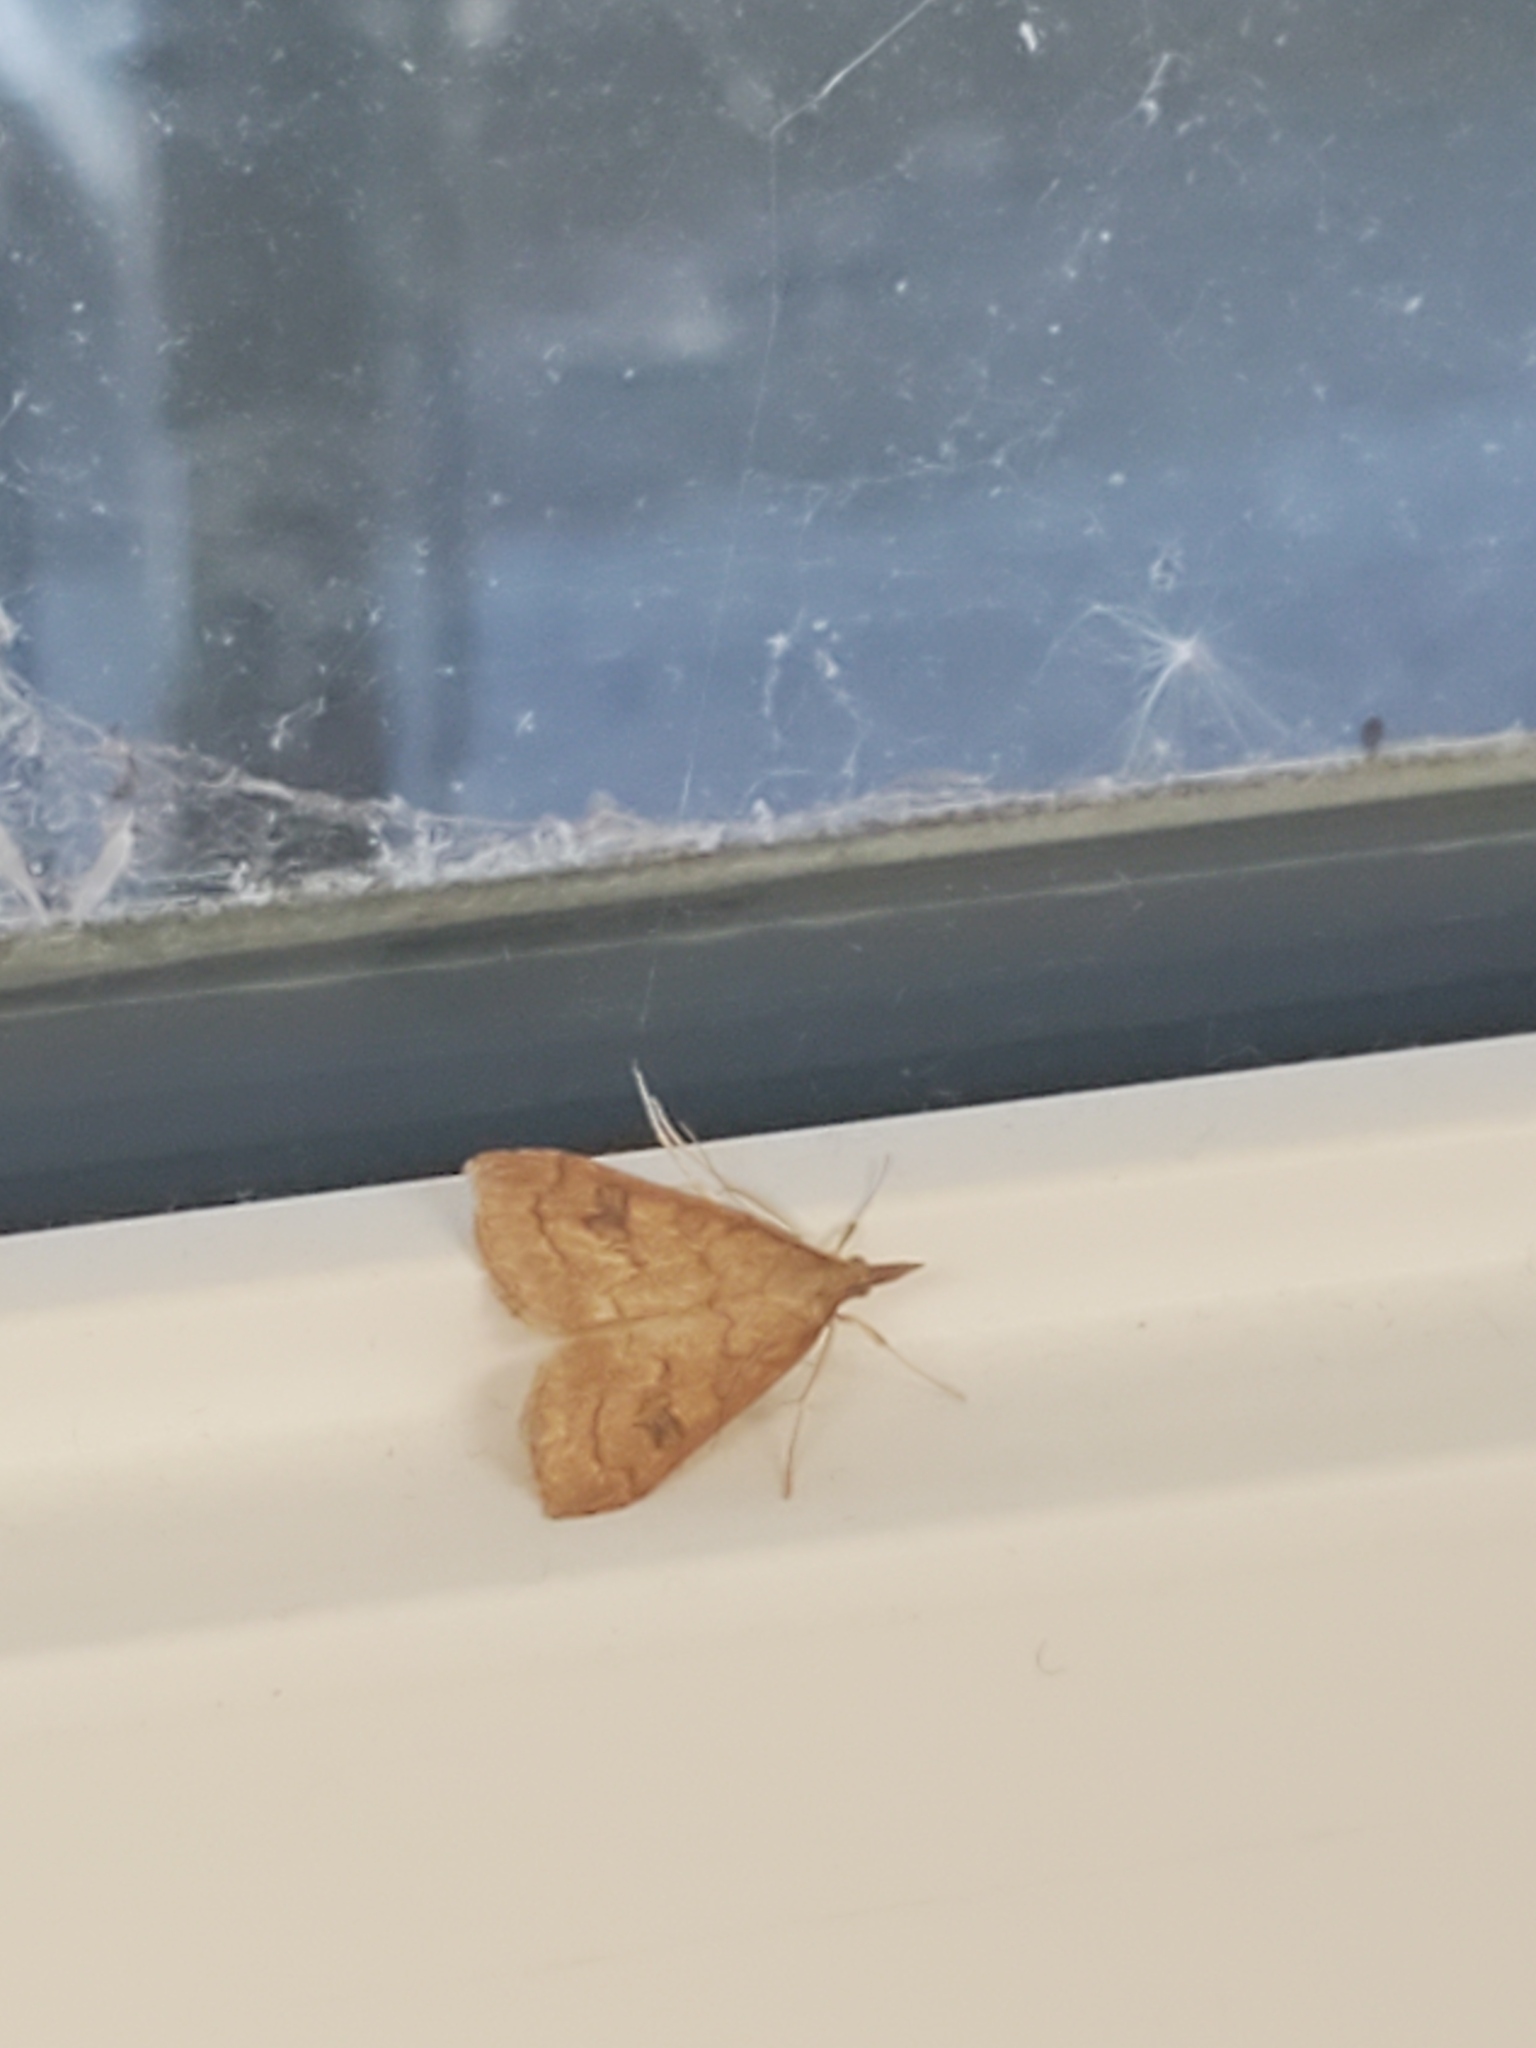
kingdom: Animalia
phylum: Arthropoda
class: Insecta
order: Lepidoptera
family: Crambidae
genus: Udea
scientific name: Udea profundalis
